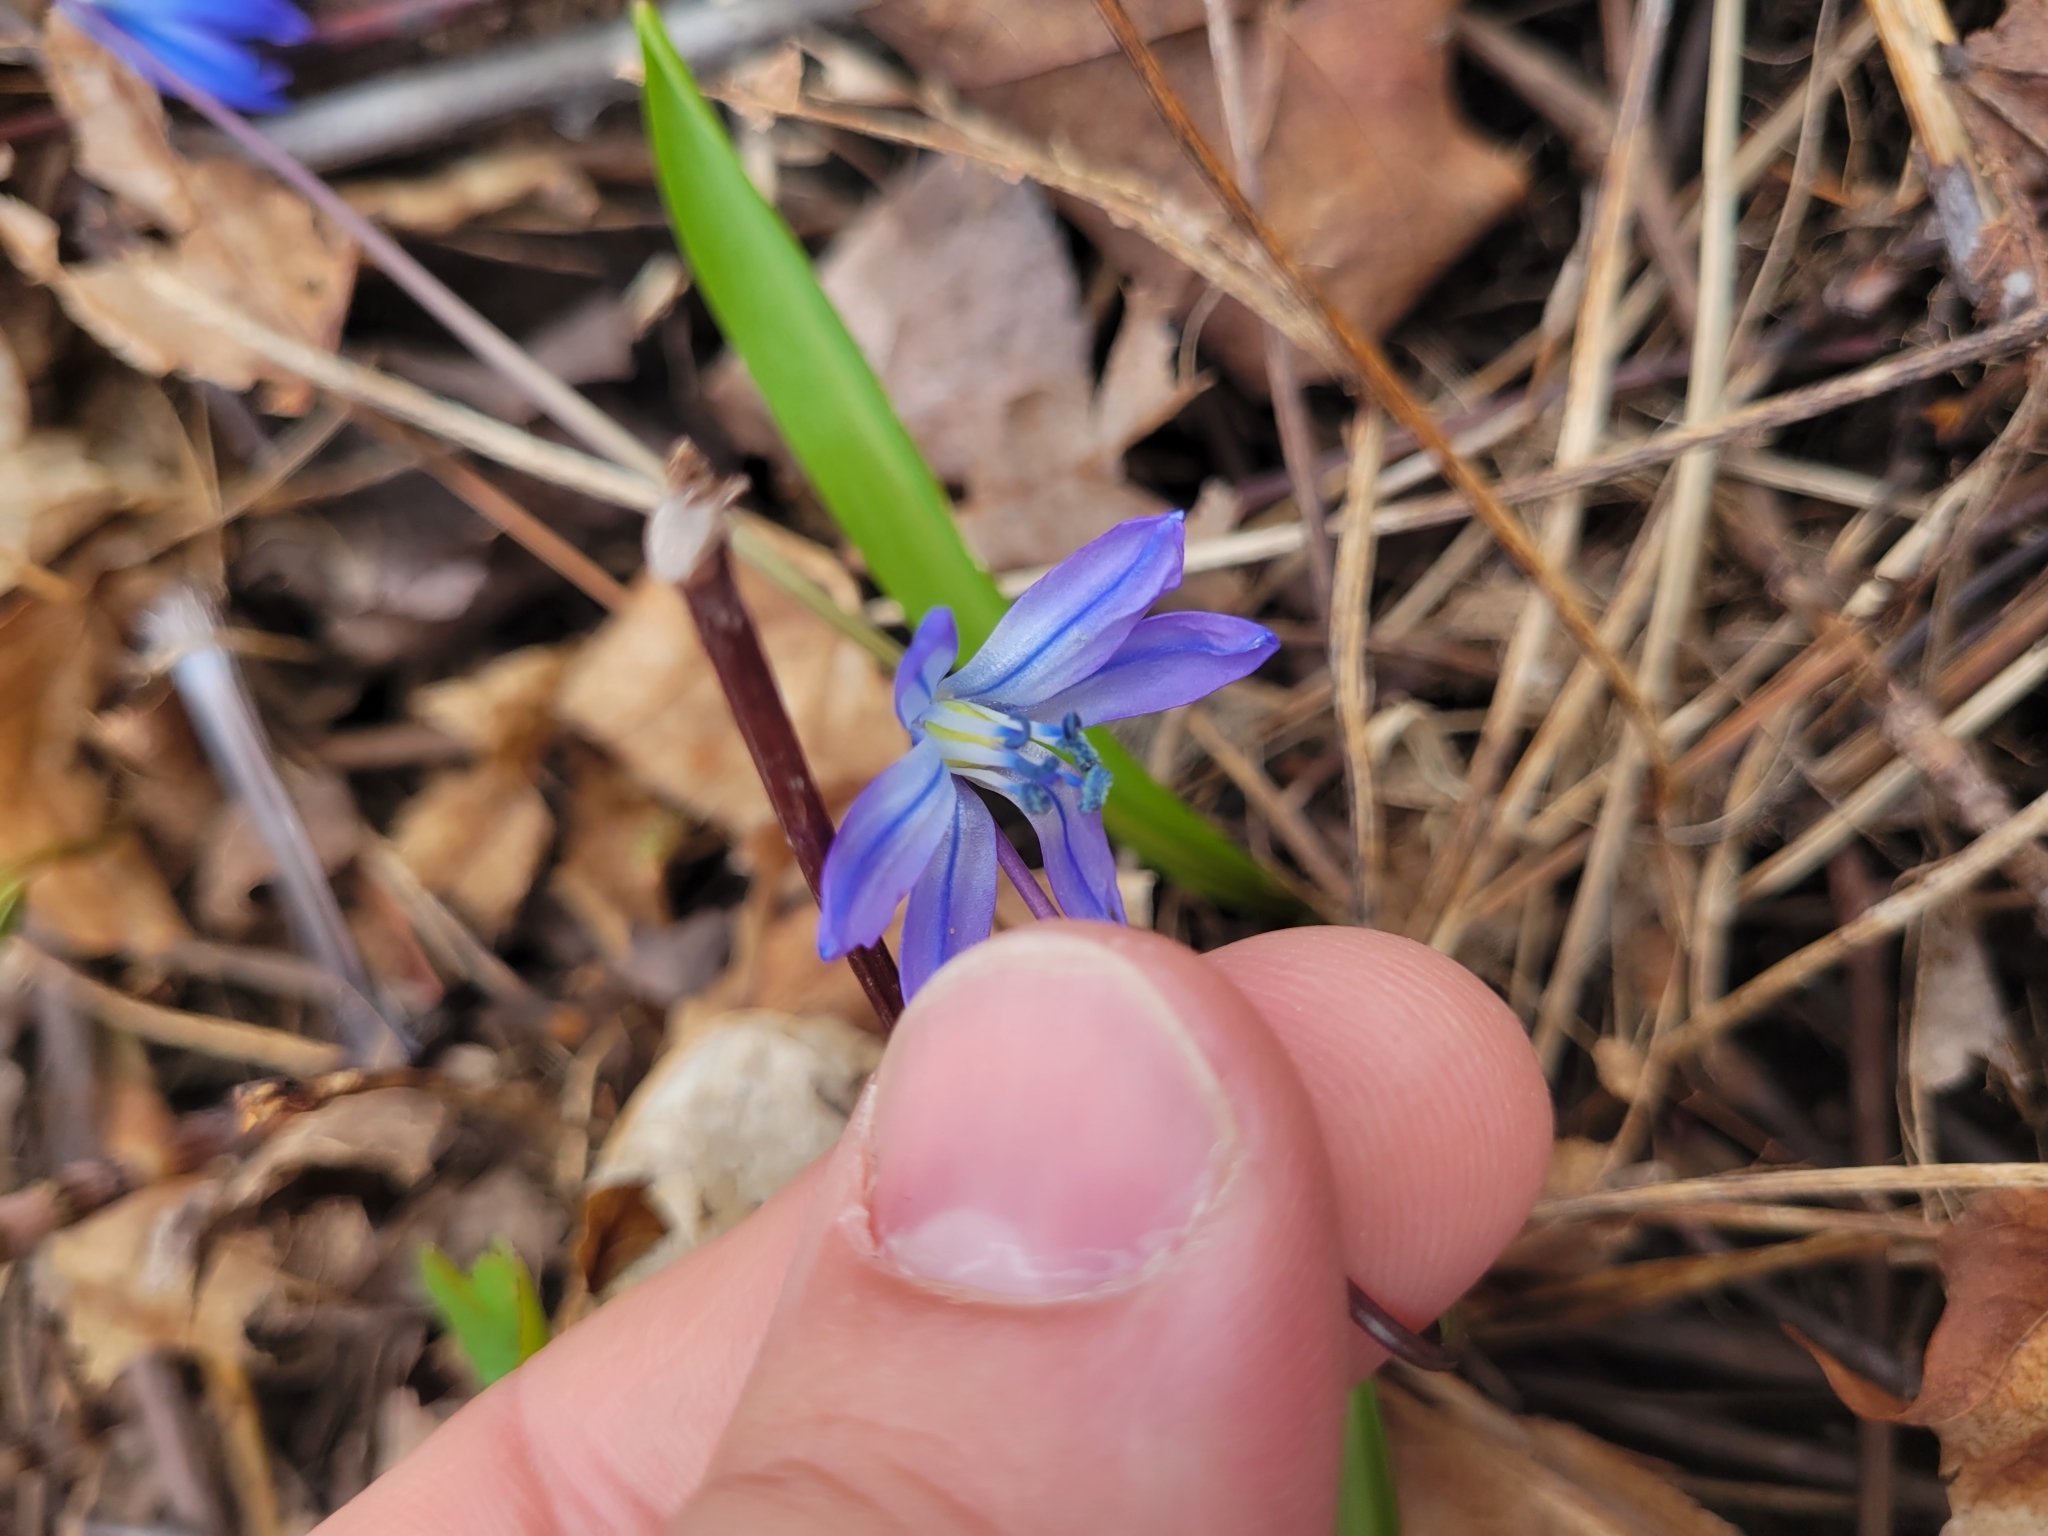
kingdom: Plantae
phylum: Tracheophyta
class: Liliopsida
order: Asparagales
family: Asparagaceae
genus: Scilla
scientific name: Scilla siberica
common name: Siberian squill
